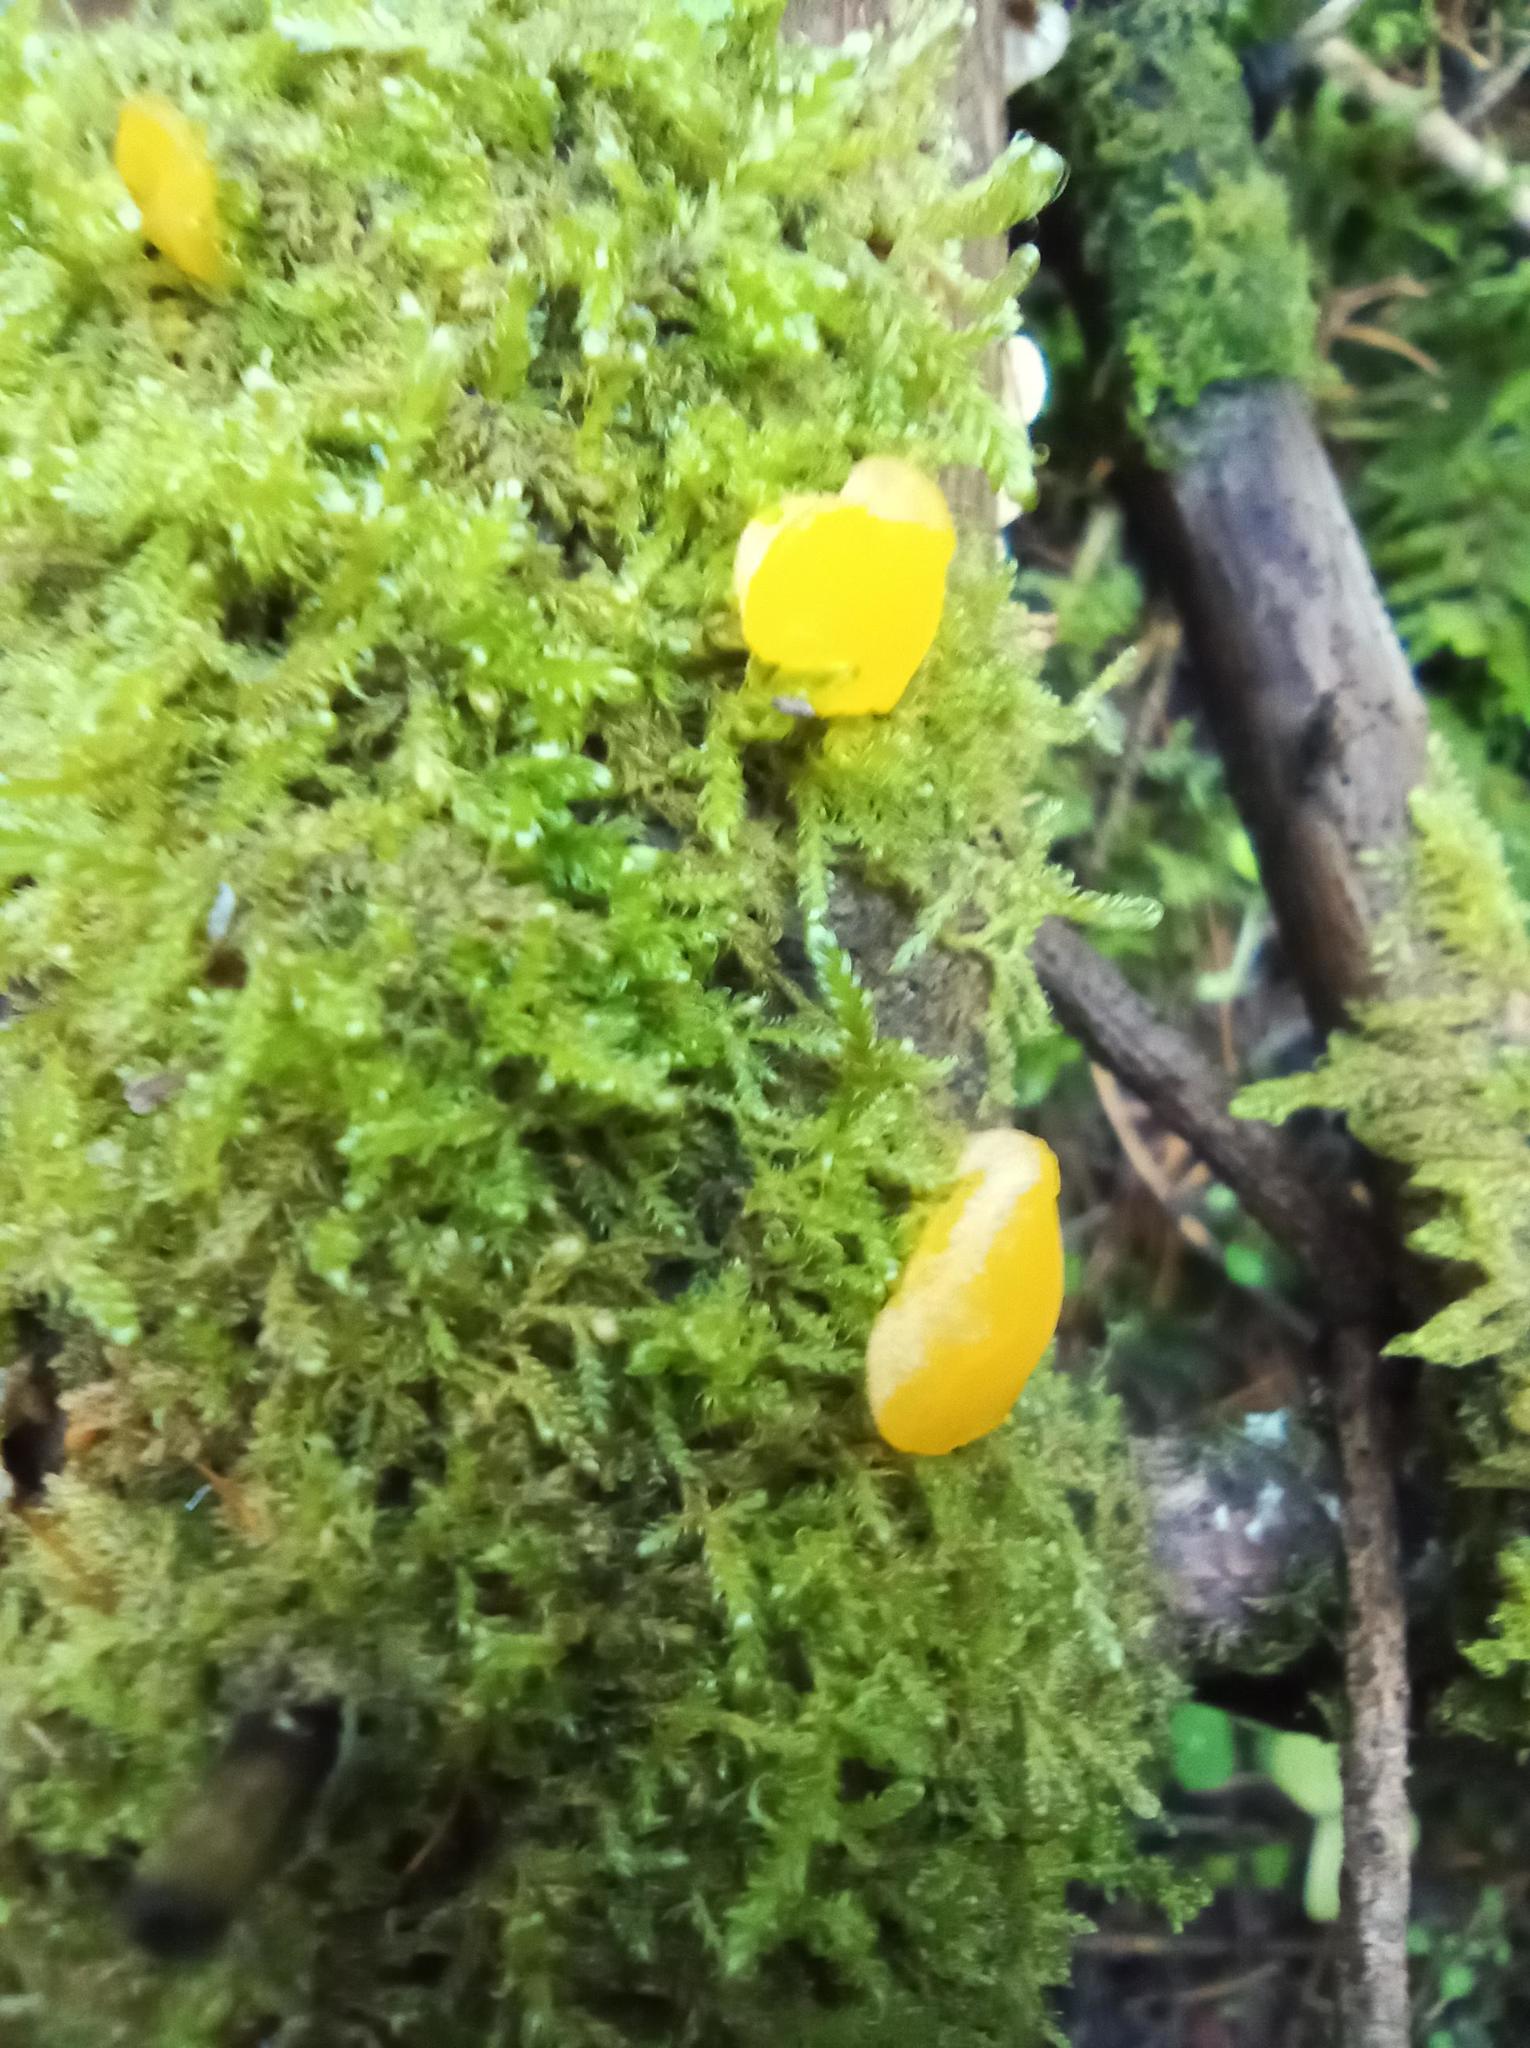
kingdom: Fungi
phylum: Basidiomycota
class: Dacrymycetes
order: Dacrymycetales
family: Dacrymycetaceae
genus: Ditiola
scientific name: Ditiola peziziformis
